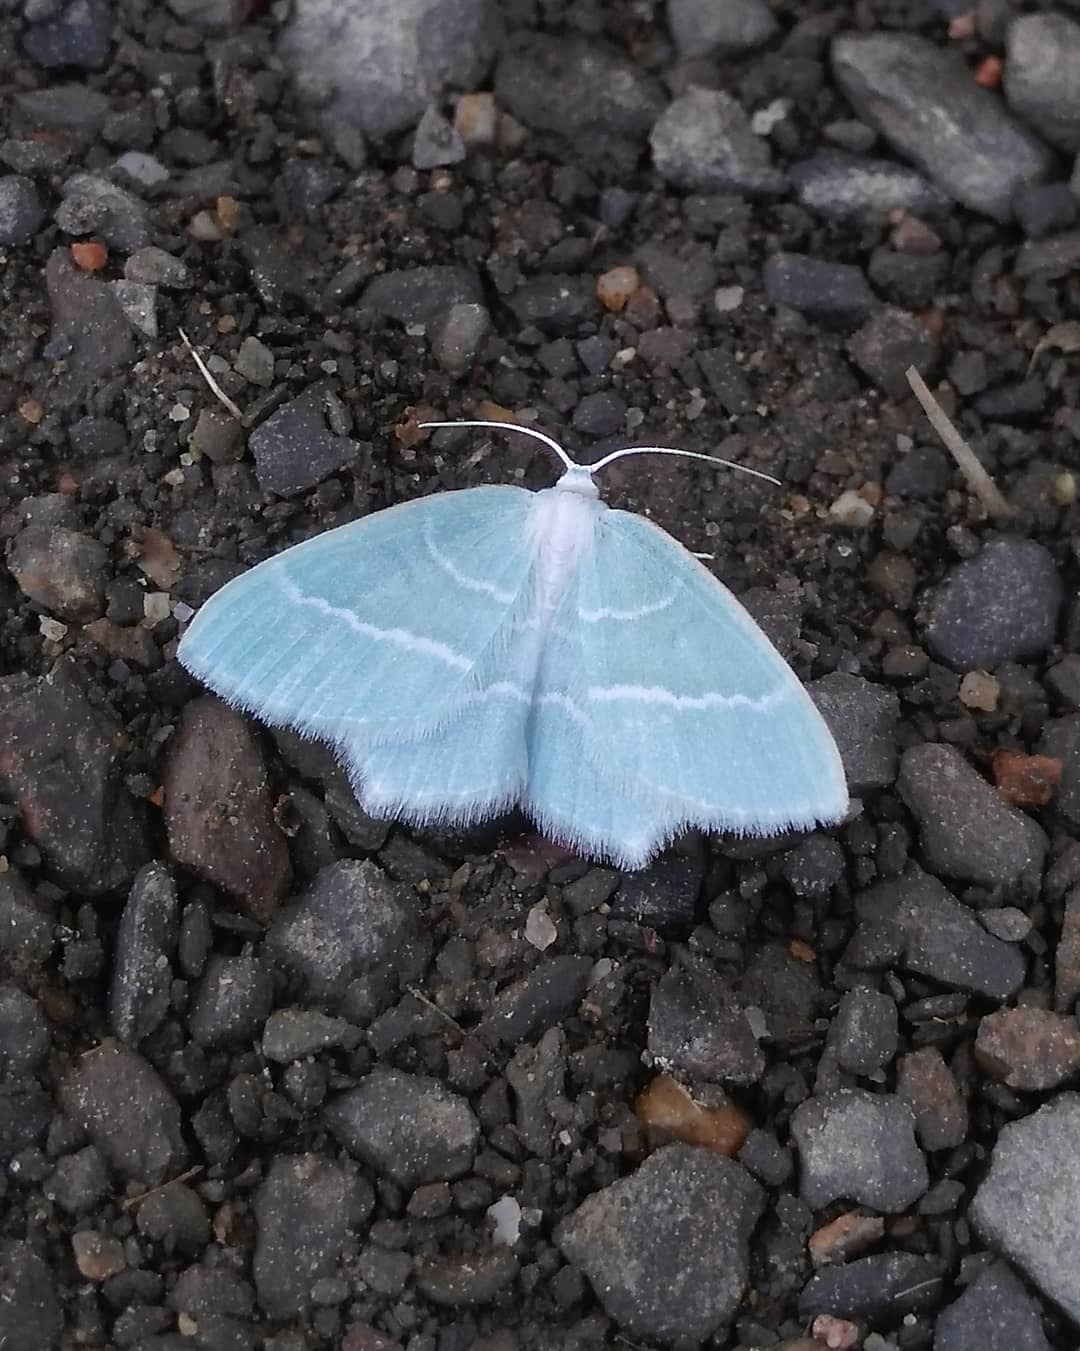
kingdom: Animalia
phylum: Arthropoda
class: Insecta
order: Lepidoptera
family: Geometridae
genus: Jodis
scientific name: Jodis lactearia
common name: Little emerald
